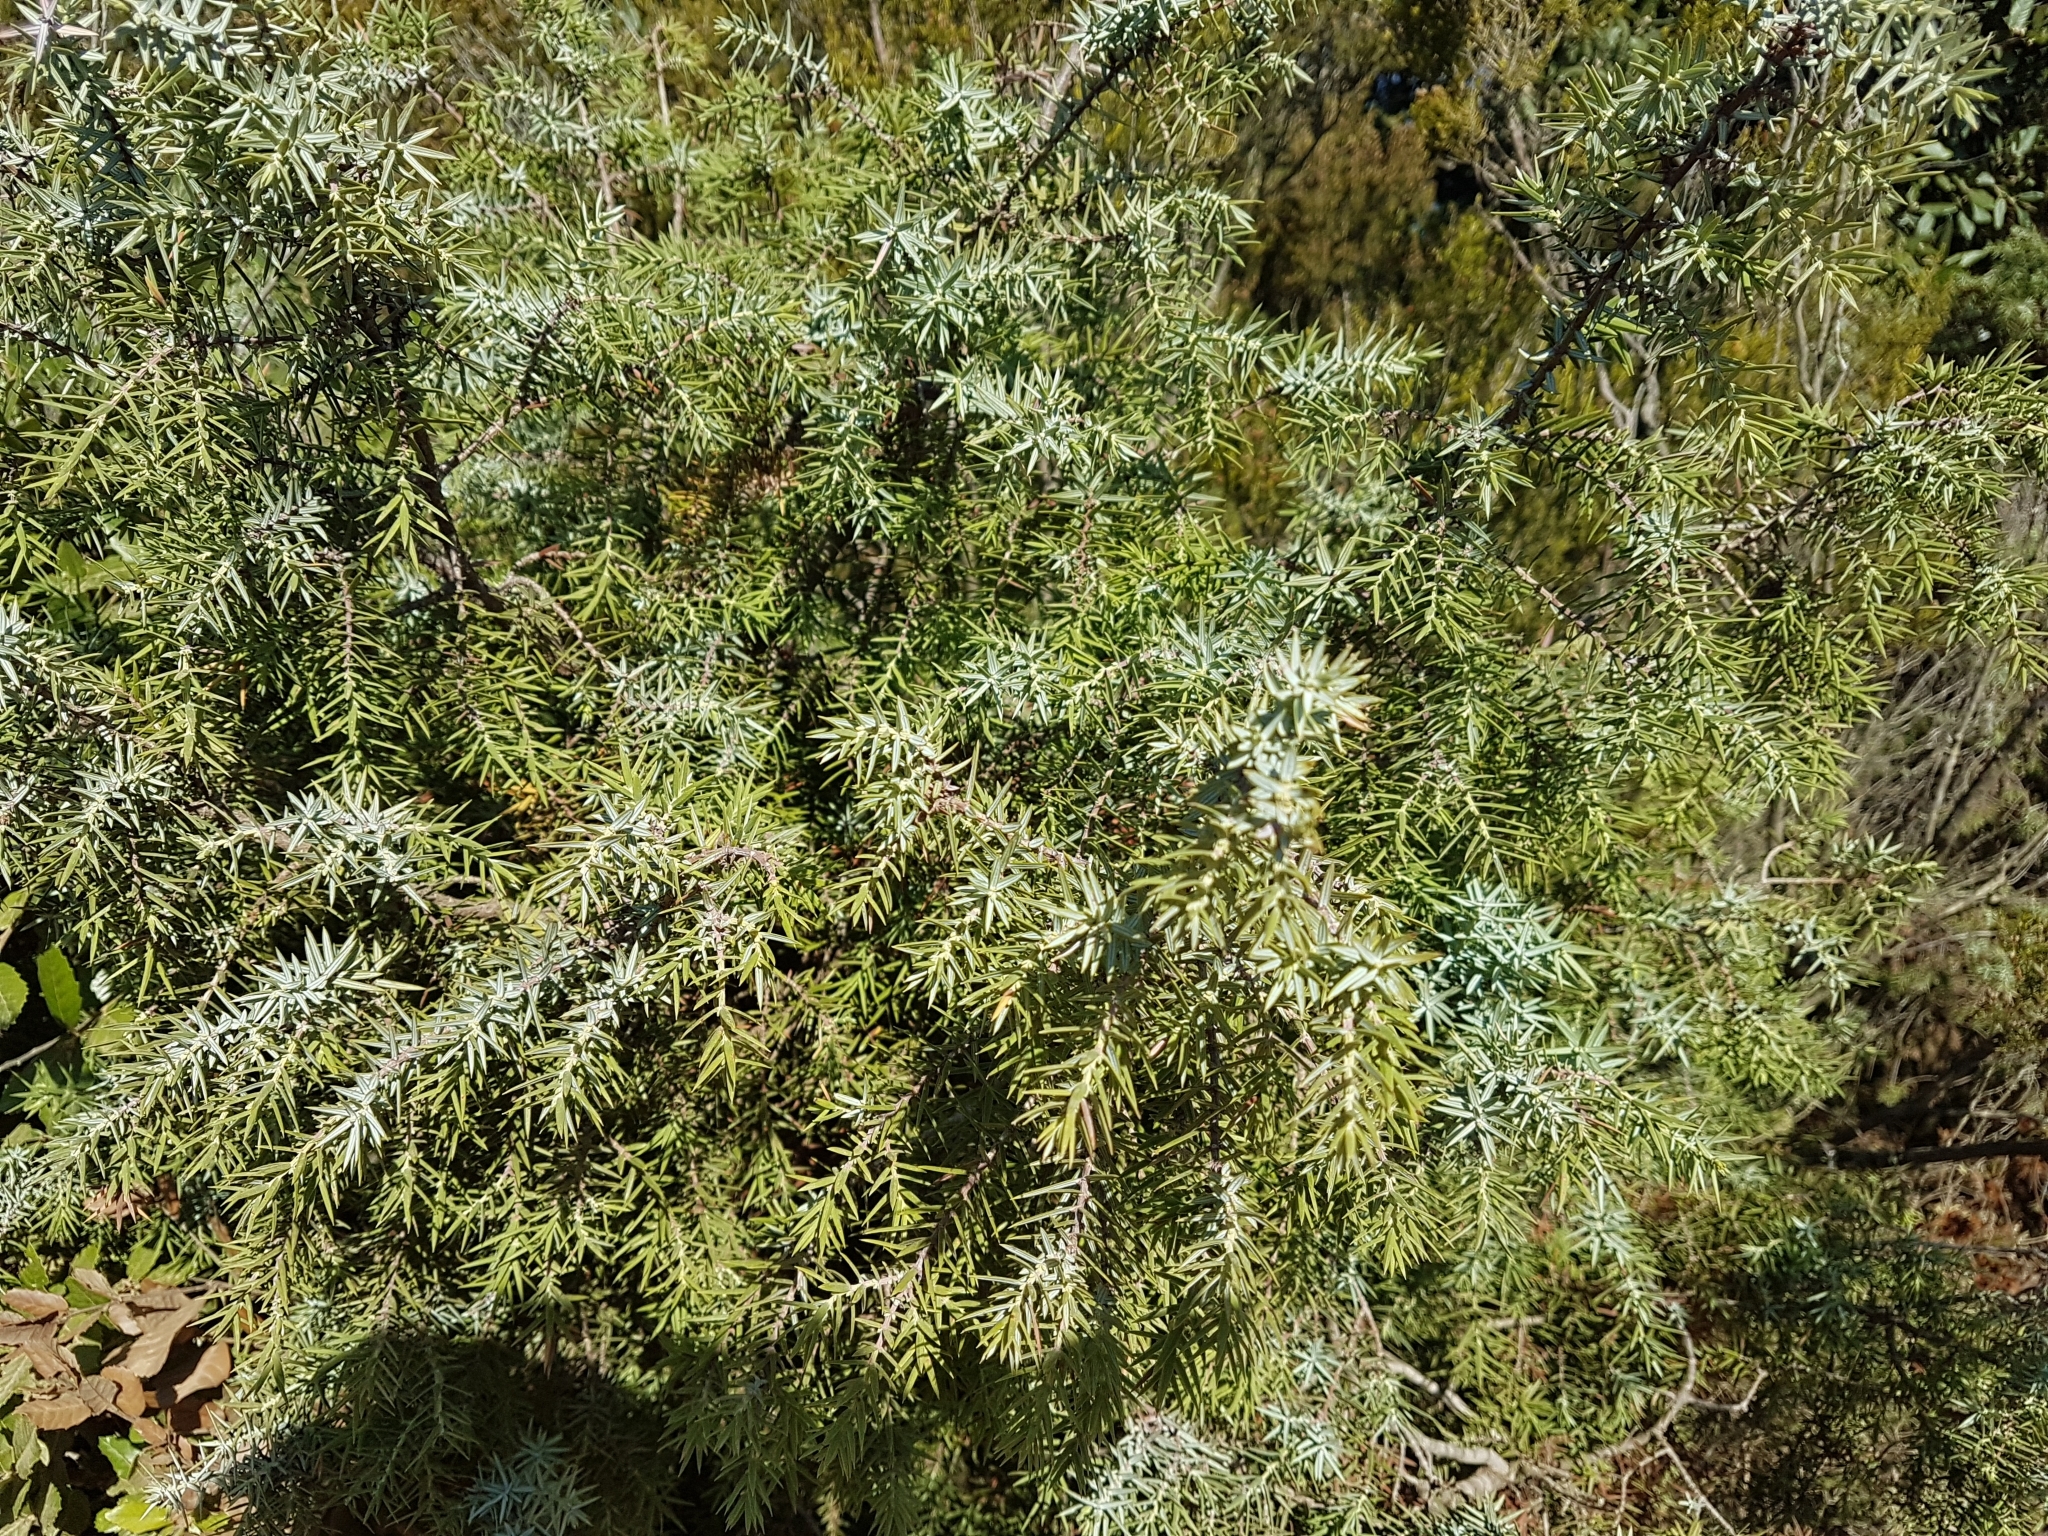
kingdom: Plantae
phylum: Tracheophyta
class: Pinopsida
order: Pinales
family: Cupressaceae
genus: Juniperus
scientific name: Juniperus oxycedrus
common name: Prickly juniper
